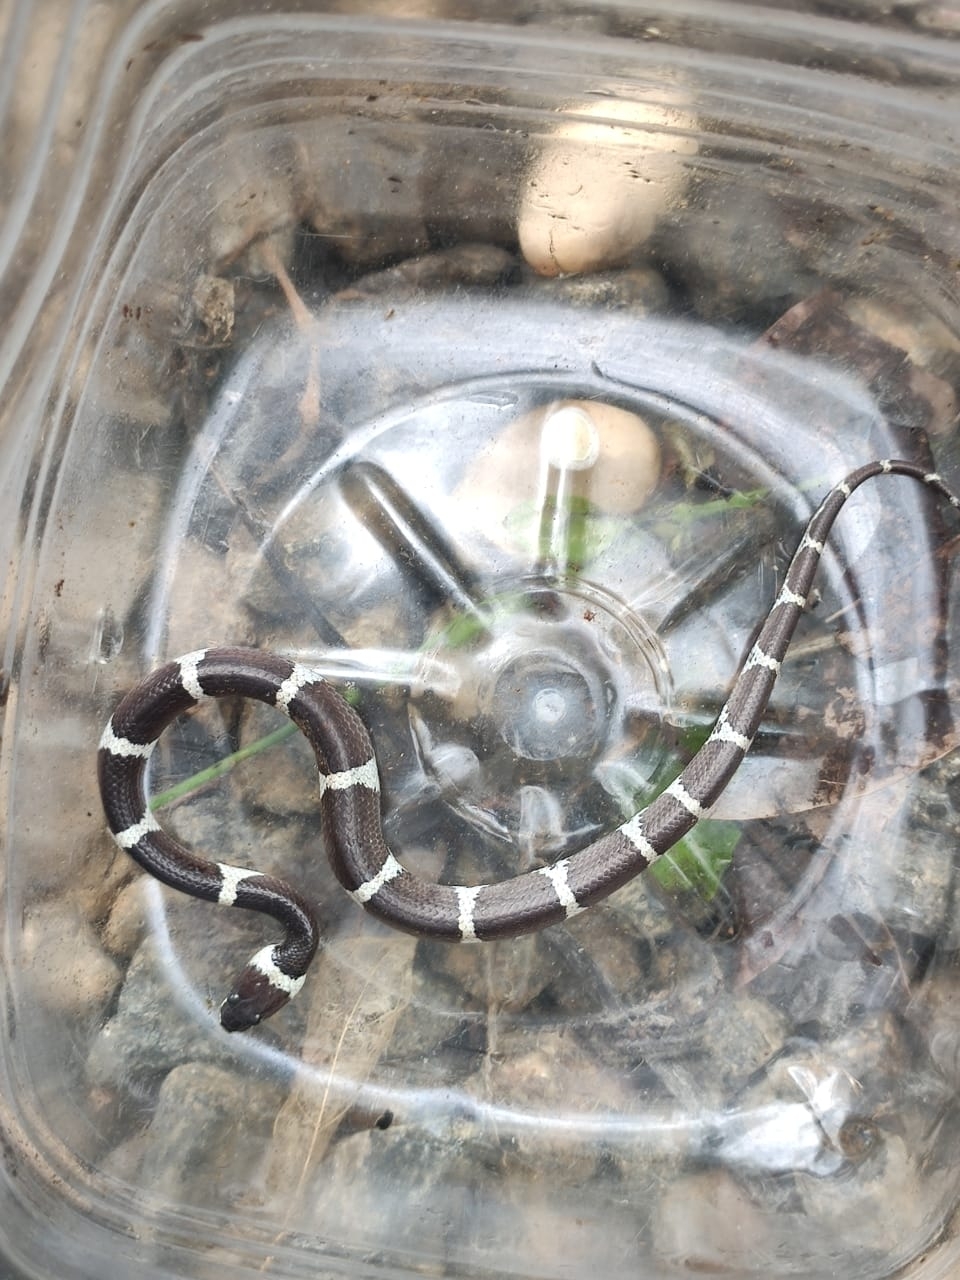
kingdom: Animalia
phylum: Chordata
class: Squamata
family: Colubridae
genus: Lycodon
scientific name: Lycodon aulicus
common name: Common wolf snake
